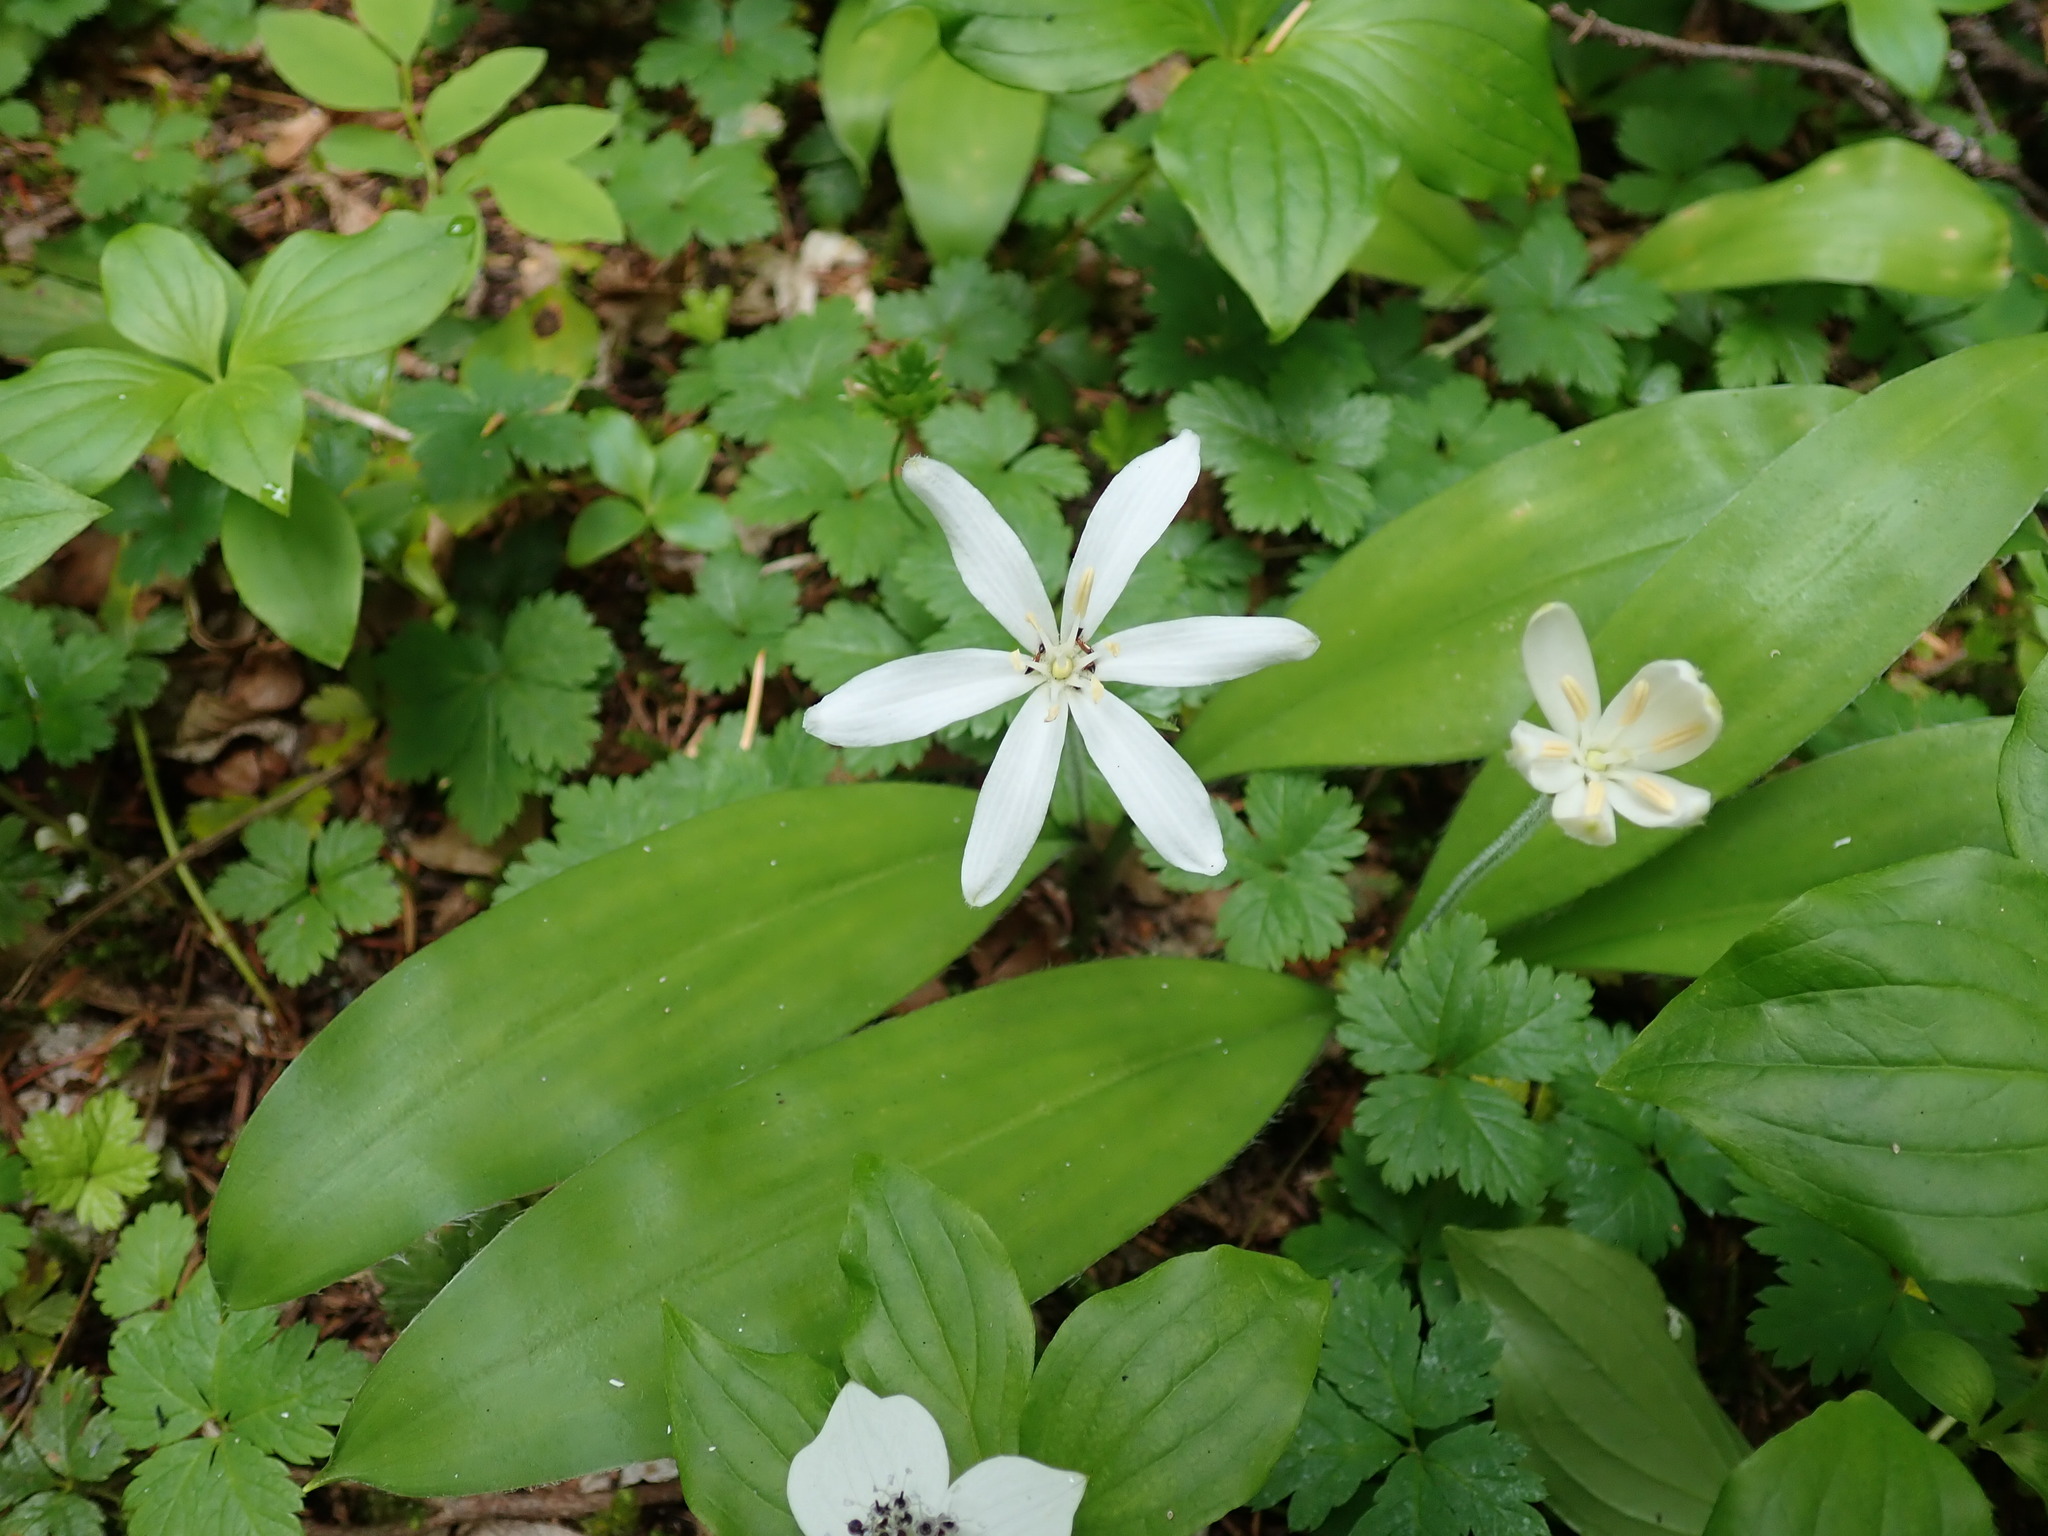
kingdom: Plantae
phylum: Tracheophyta
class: Liliopsida
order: Liliales
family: Liliaceae
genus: Clintonia
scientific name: Clintonia uniflora
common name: Queen's cup
